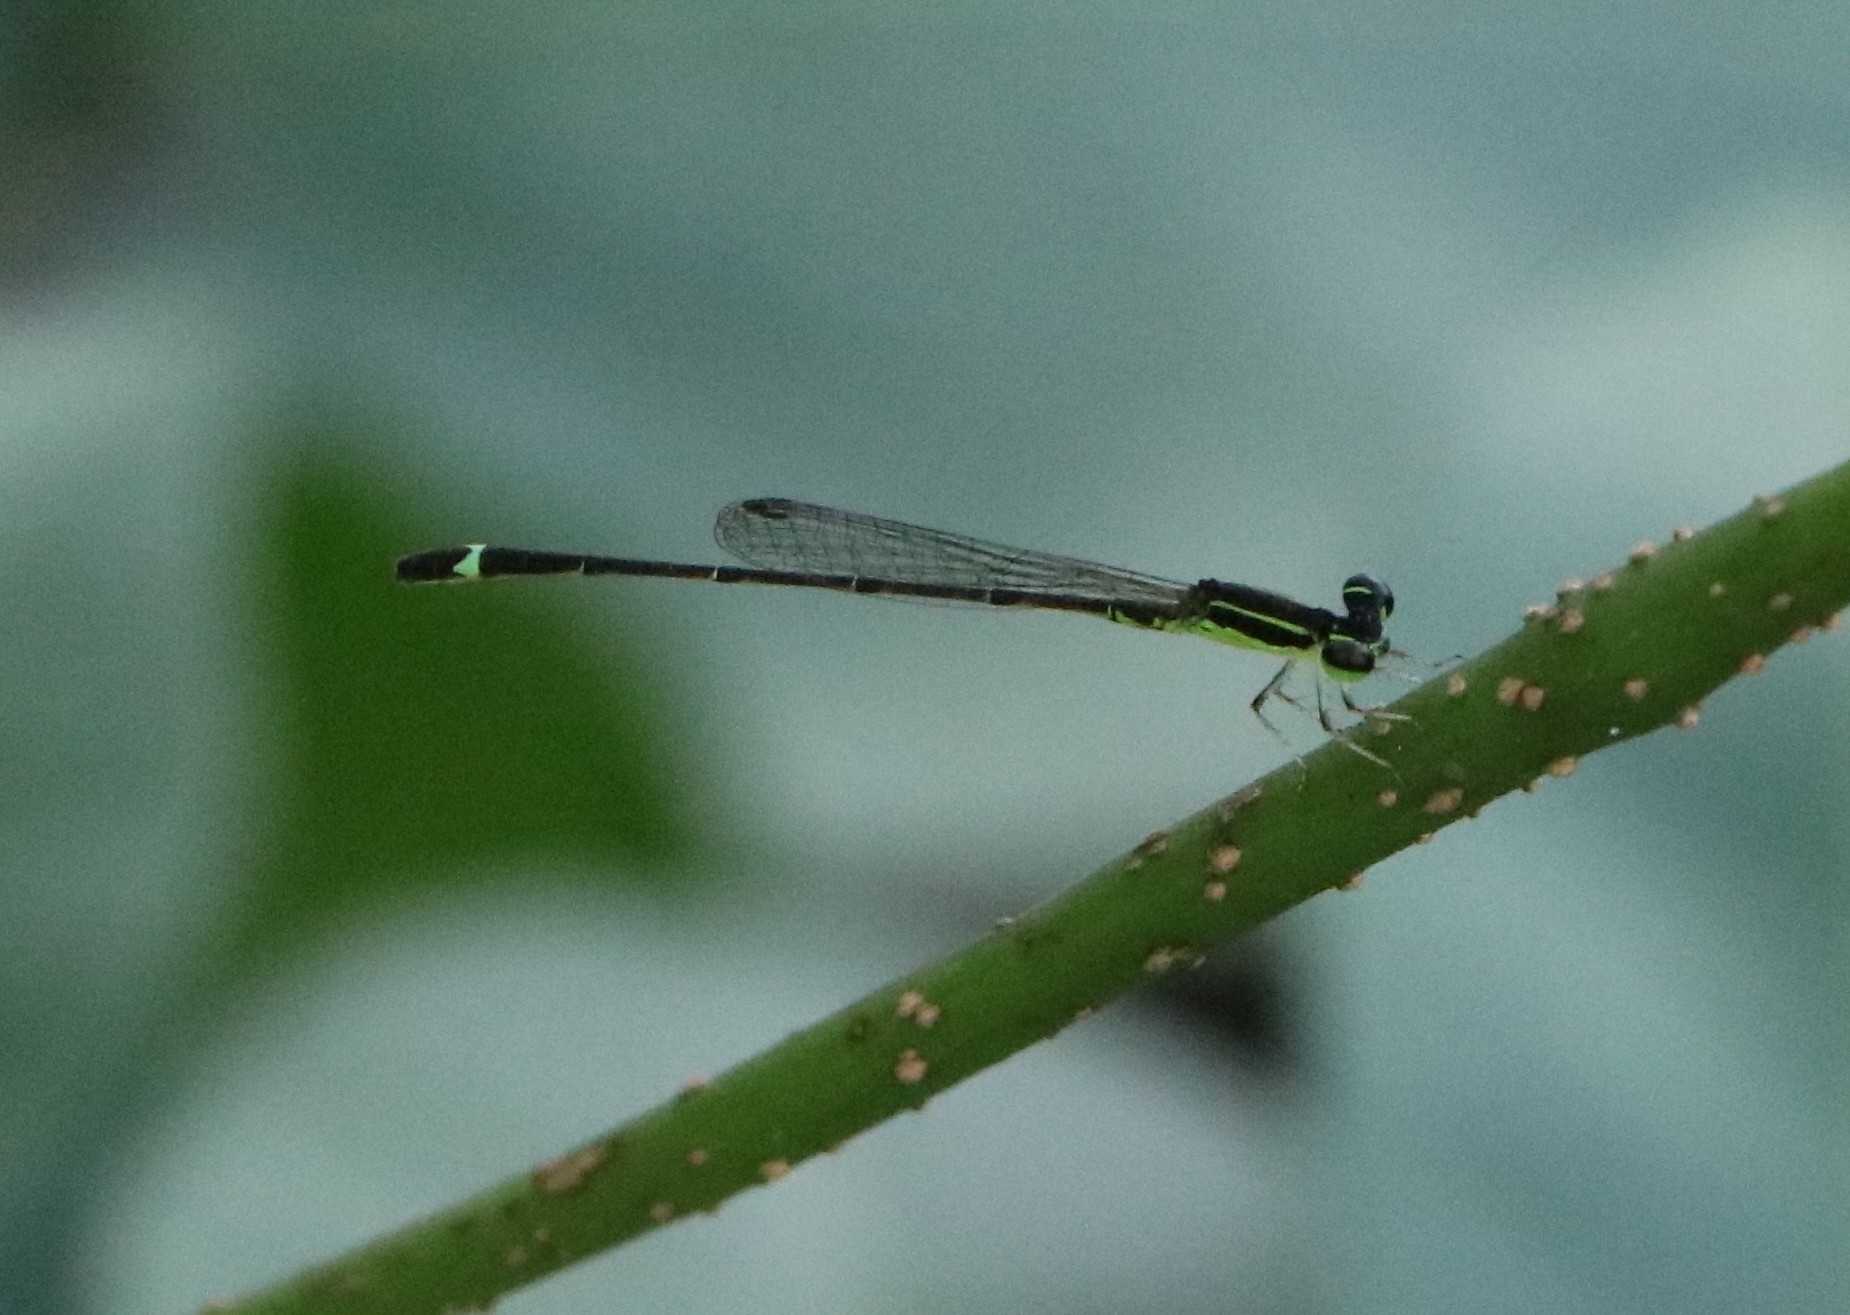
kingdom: Animalia
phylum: Arthropoda
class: Insecta
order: Odonata
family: Coenagrionidae
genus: Mortonagrion
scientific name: Mortonagrion varralli
